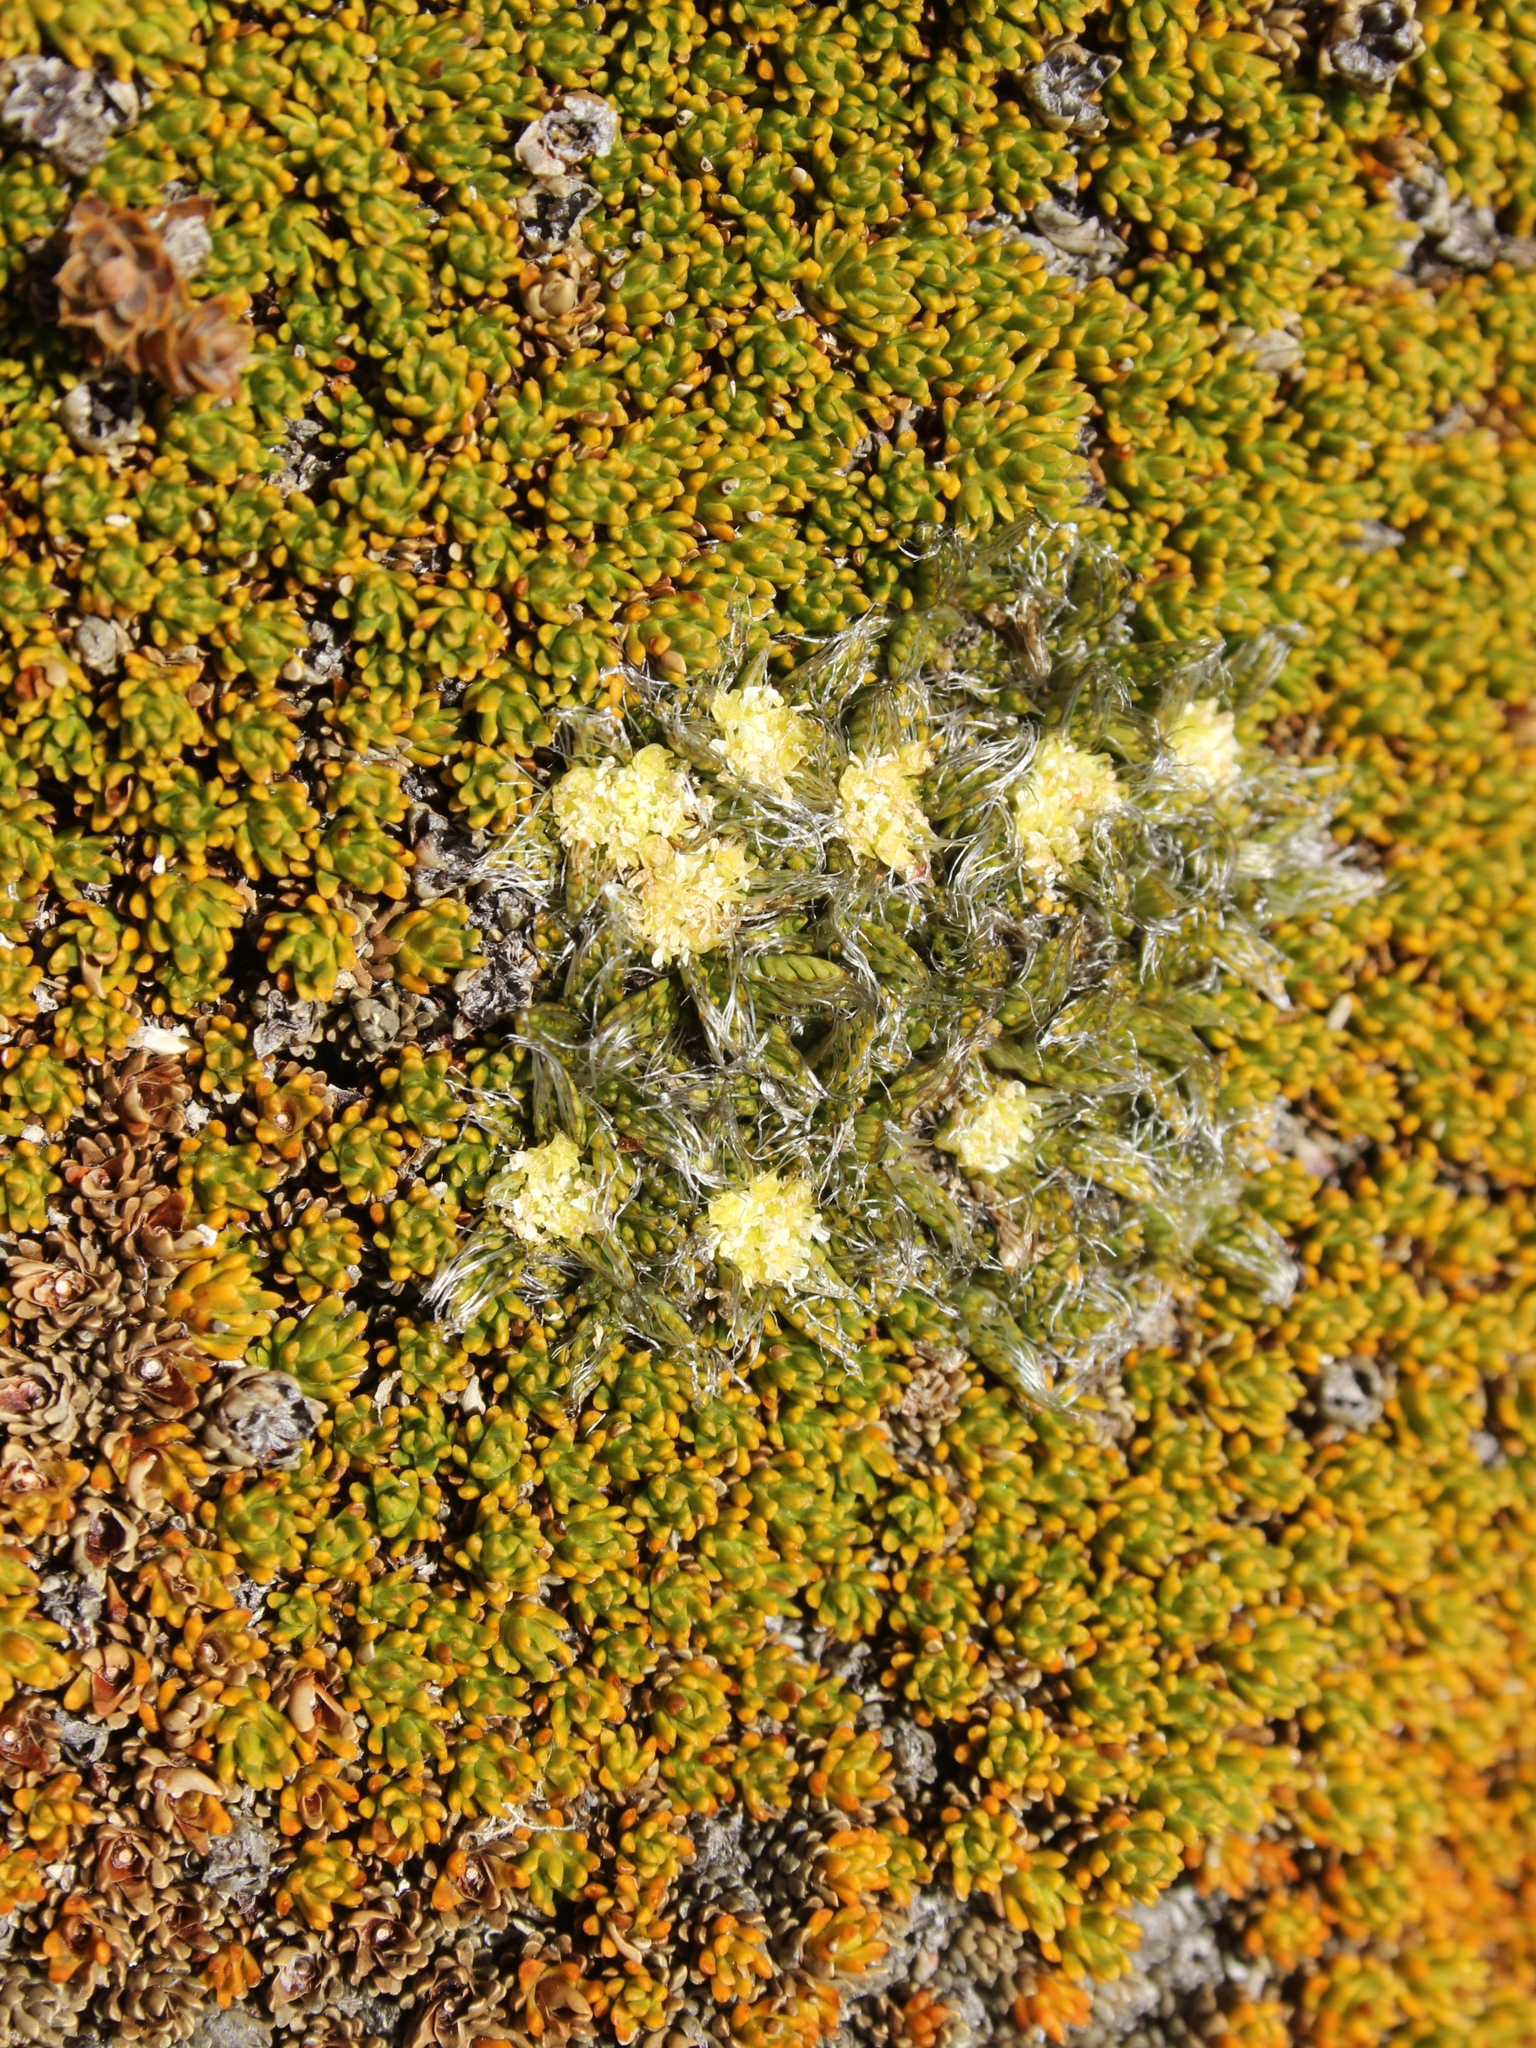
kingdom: Plantae
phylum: Tracheophyta
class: Magnoliopsida
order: Apiales
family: Apiaceae
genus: Anisotome
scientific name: Anisotome imbricata
